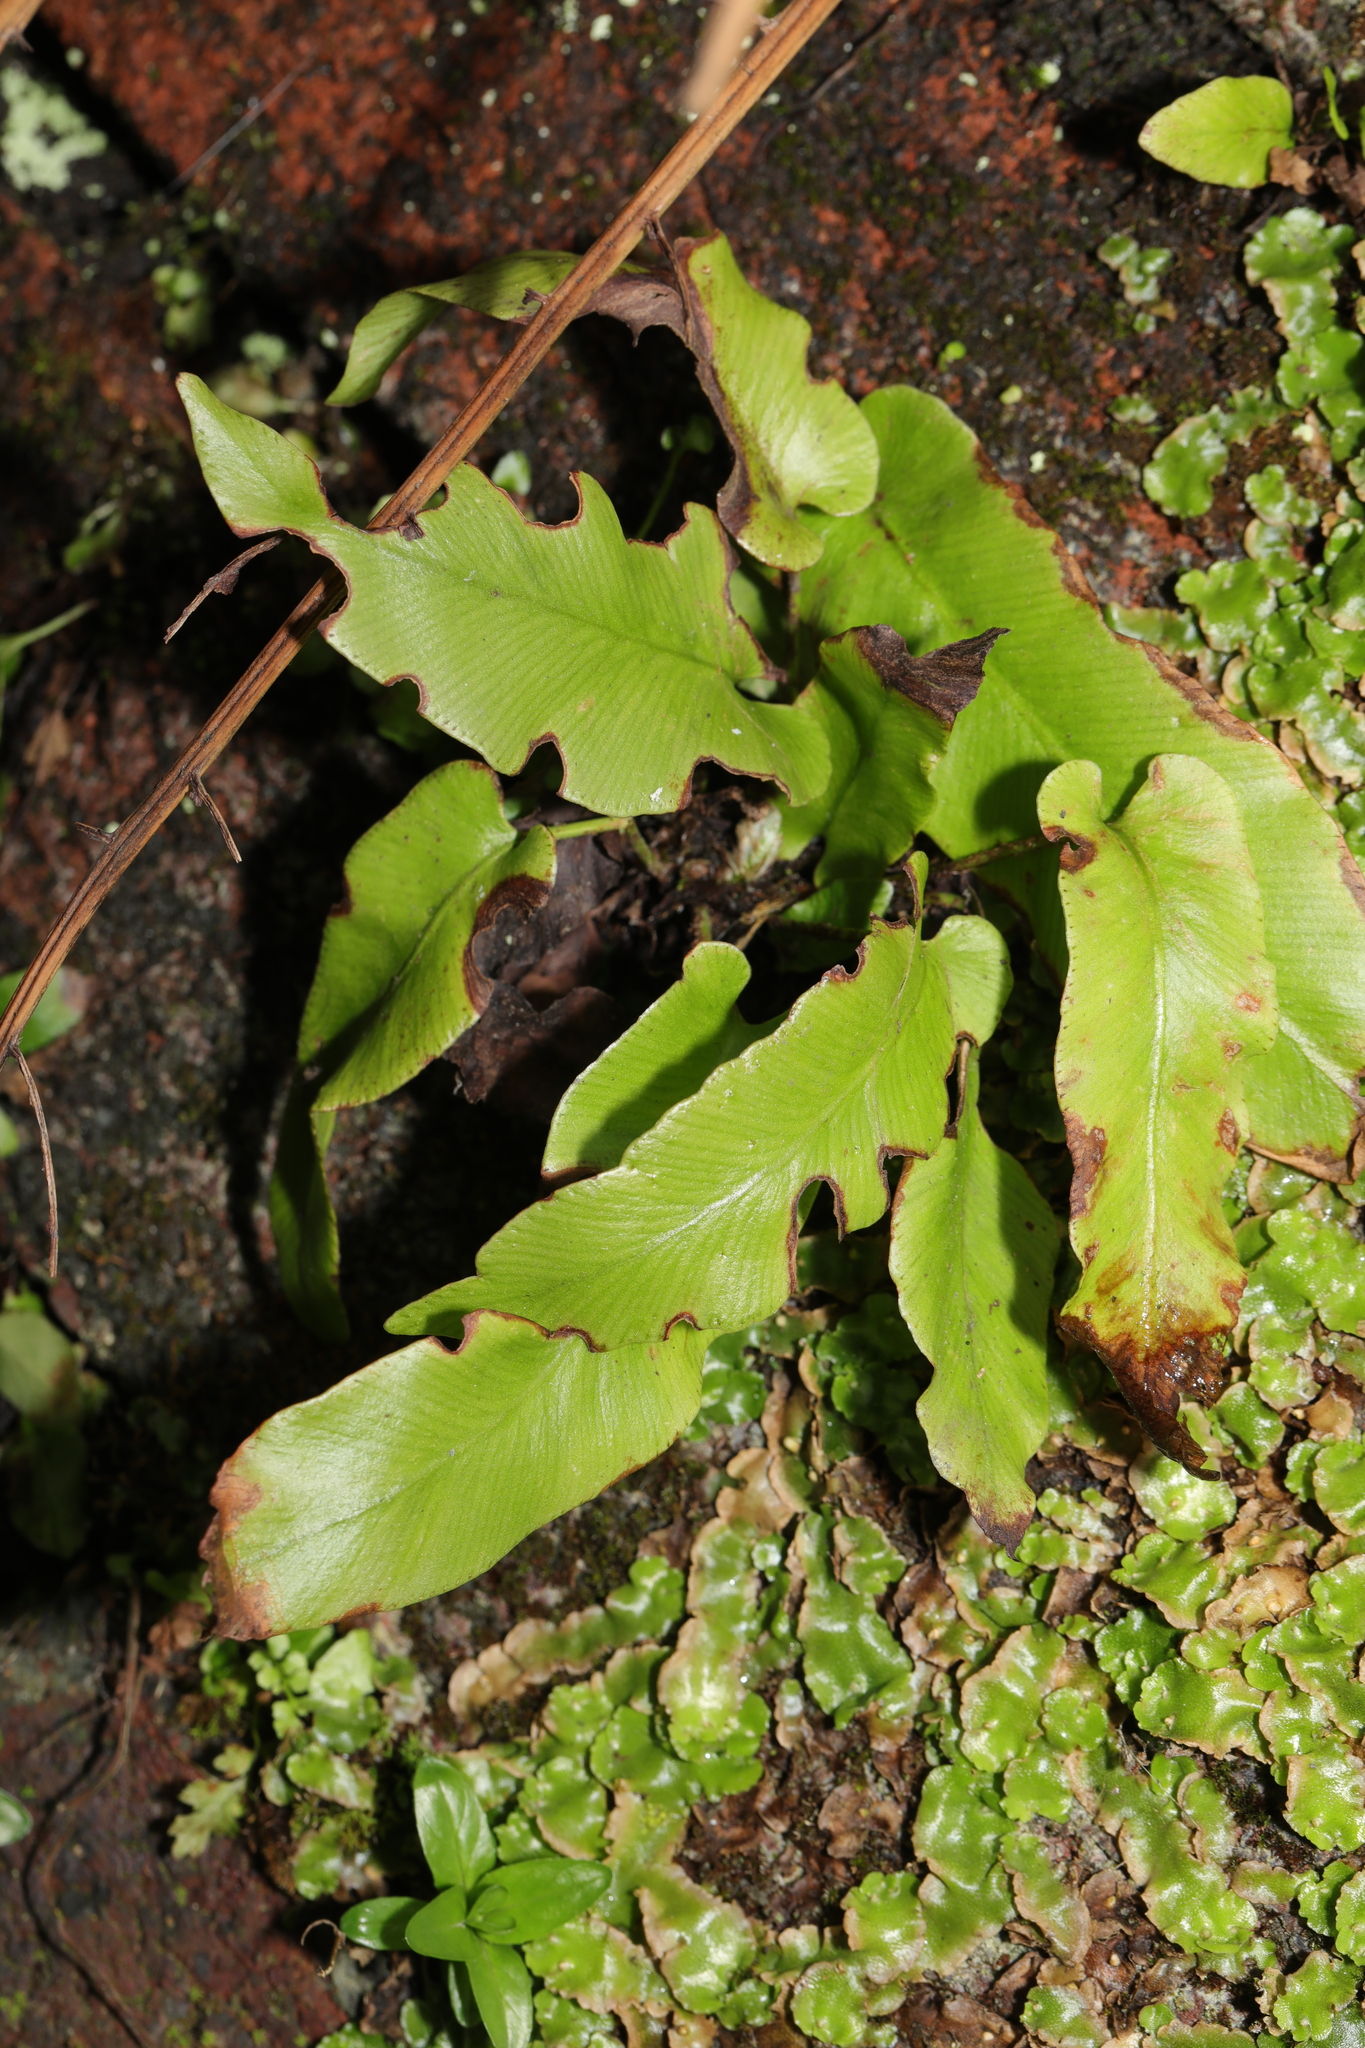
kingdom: Plantae
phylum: Tracheophyta
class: Polypodiopsida
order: Polypodiales
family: Aspleniaceae
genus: Asplenium
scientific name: Asplenium scolopendrium
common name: Hart's-tongue fern
